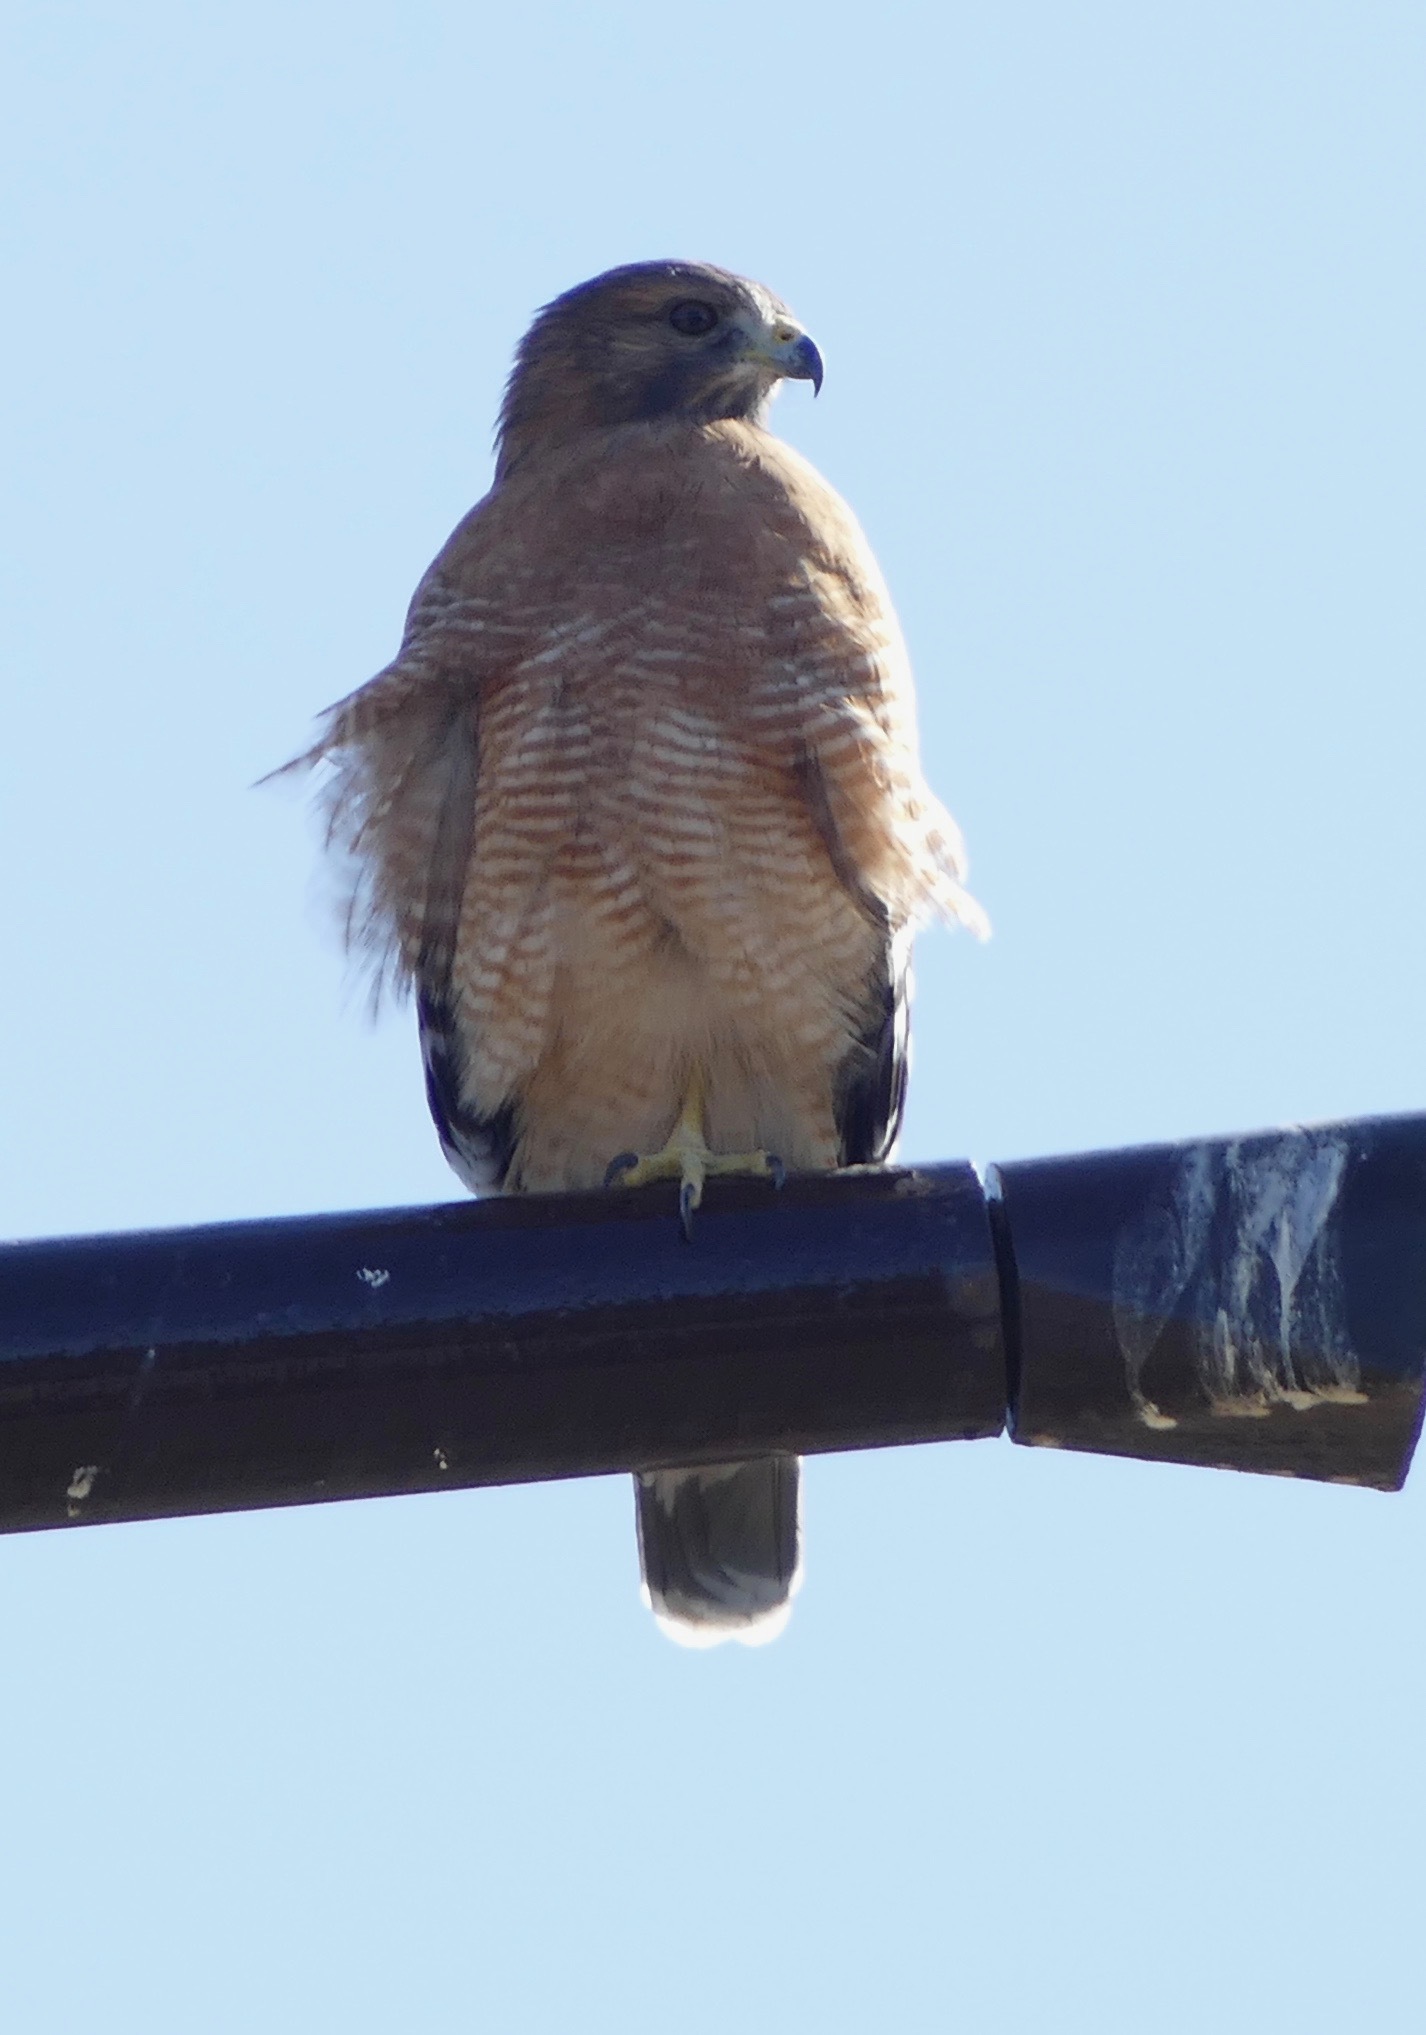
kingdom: Animalia
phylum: Chordata
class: Aves
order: Accipitriformes
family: Accipitridae
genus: Buteo
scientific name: Buteo lineatus
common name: Red-shouldered hawk
